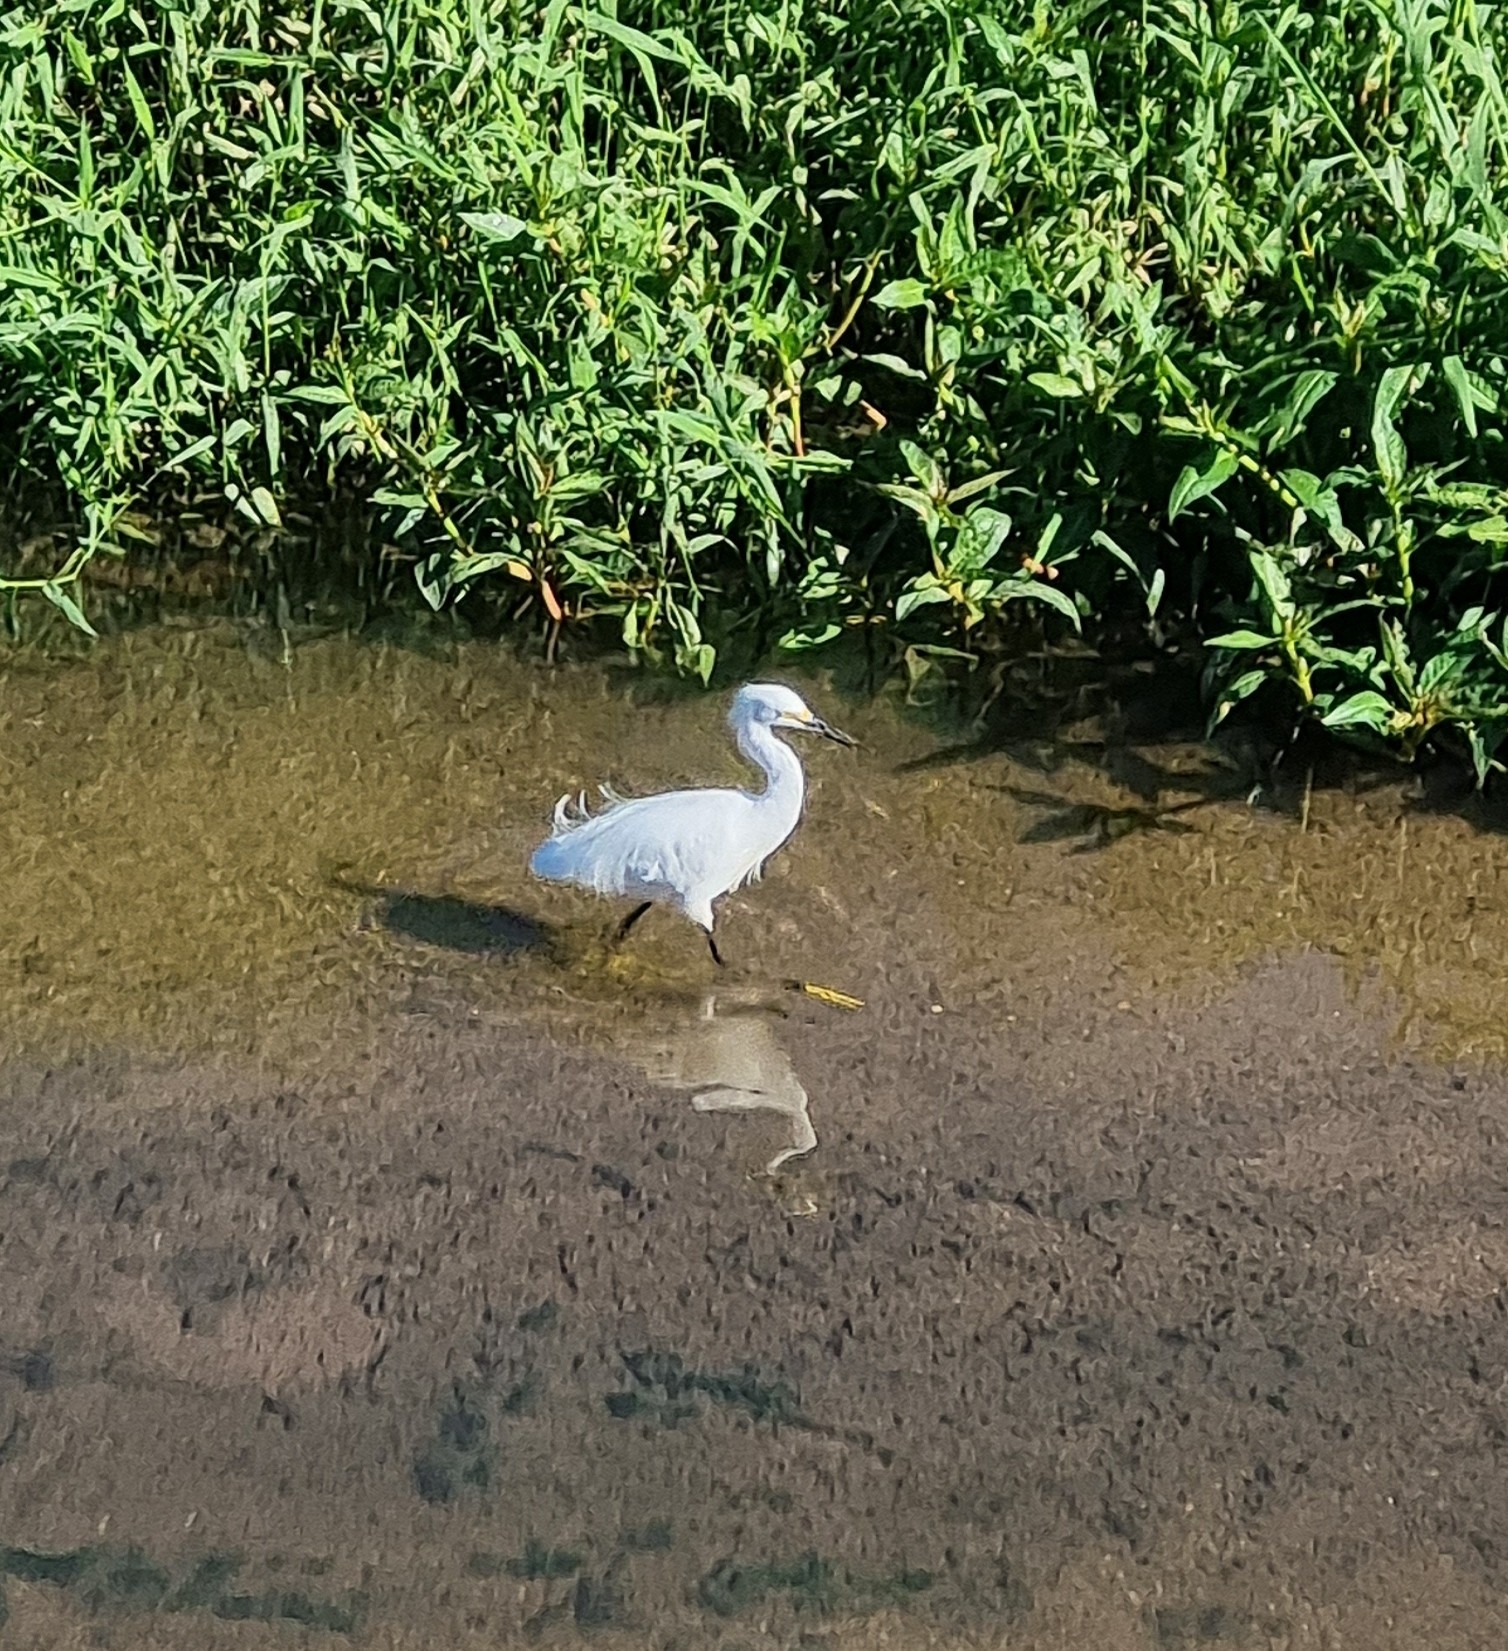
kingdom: Animalia
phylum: Chordata
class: Aves
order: Pelecaniformes
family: Ardeidae
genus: Egretta
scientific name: Egretta thula
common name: Snowy egret
